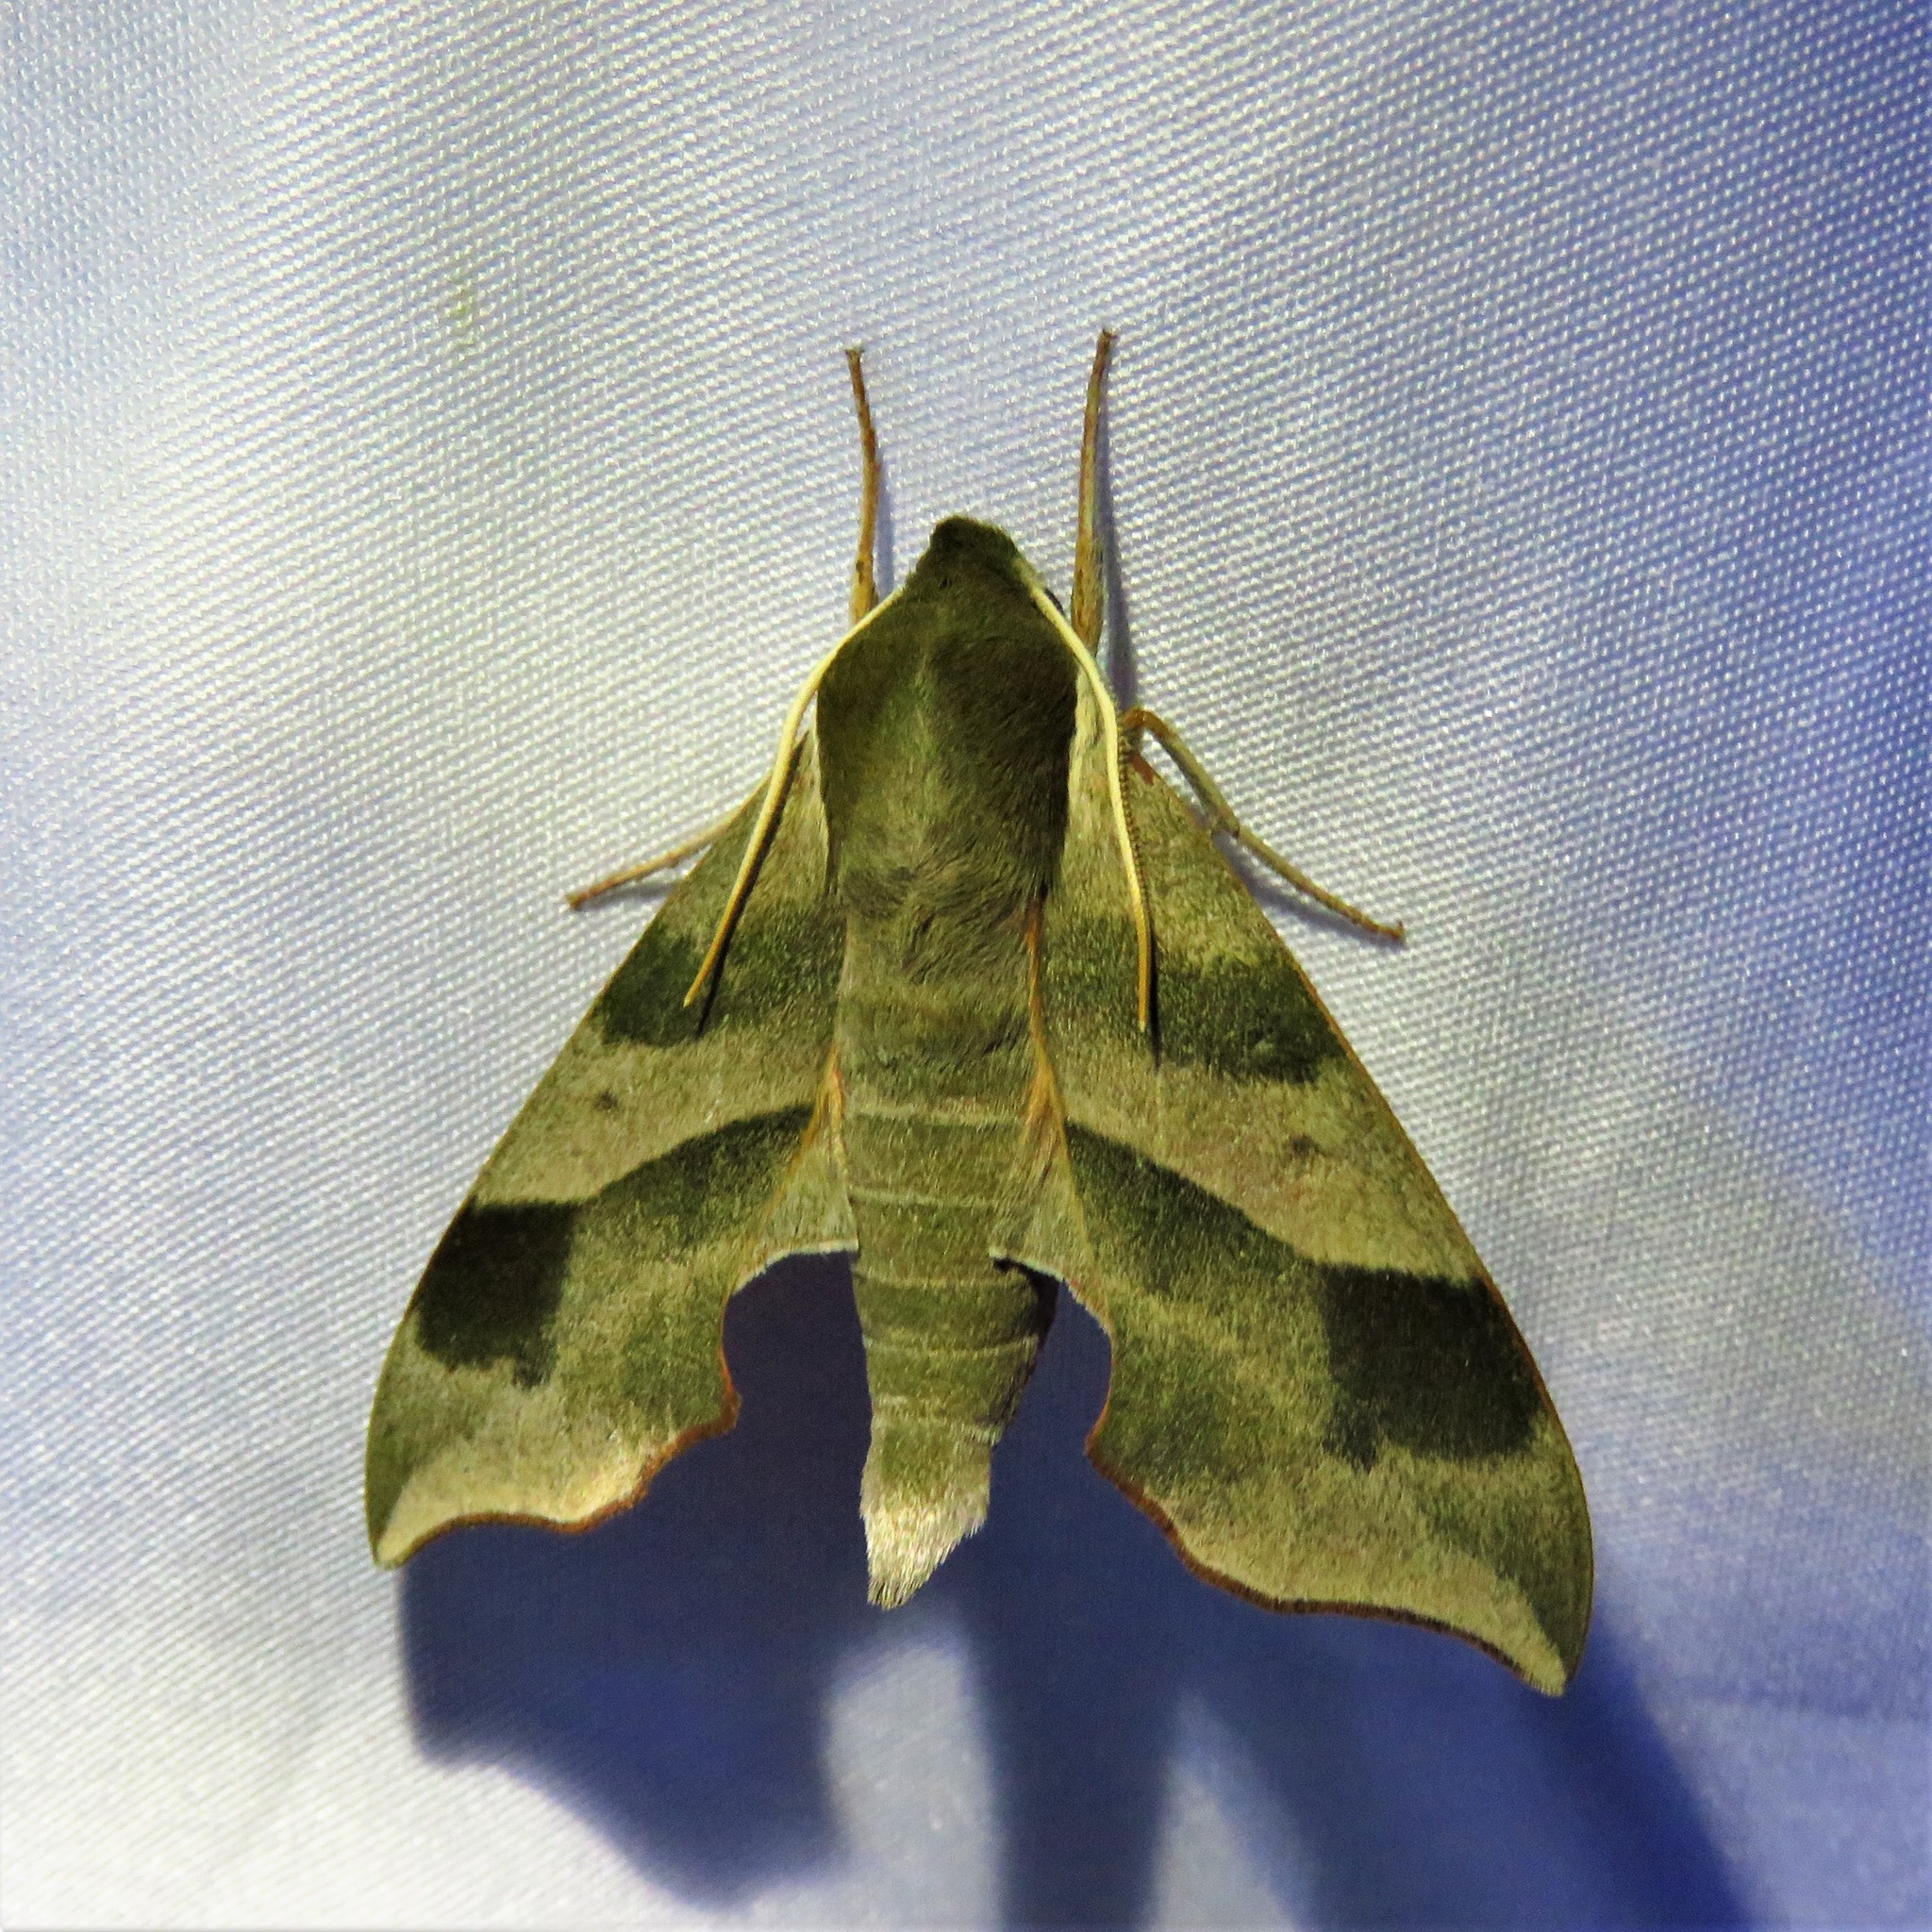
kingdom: Animalia
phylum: Arthropoda
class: Insecta
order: Lepidoptera
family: Sphingidae
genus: Darapsa
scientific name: Darapsa myron
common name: Hog sphinx
